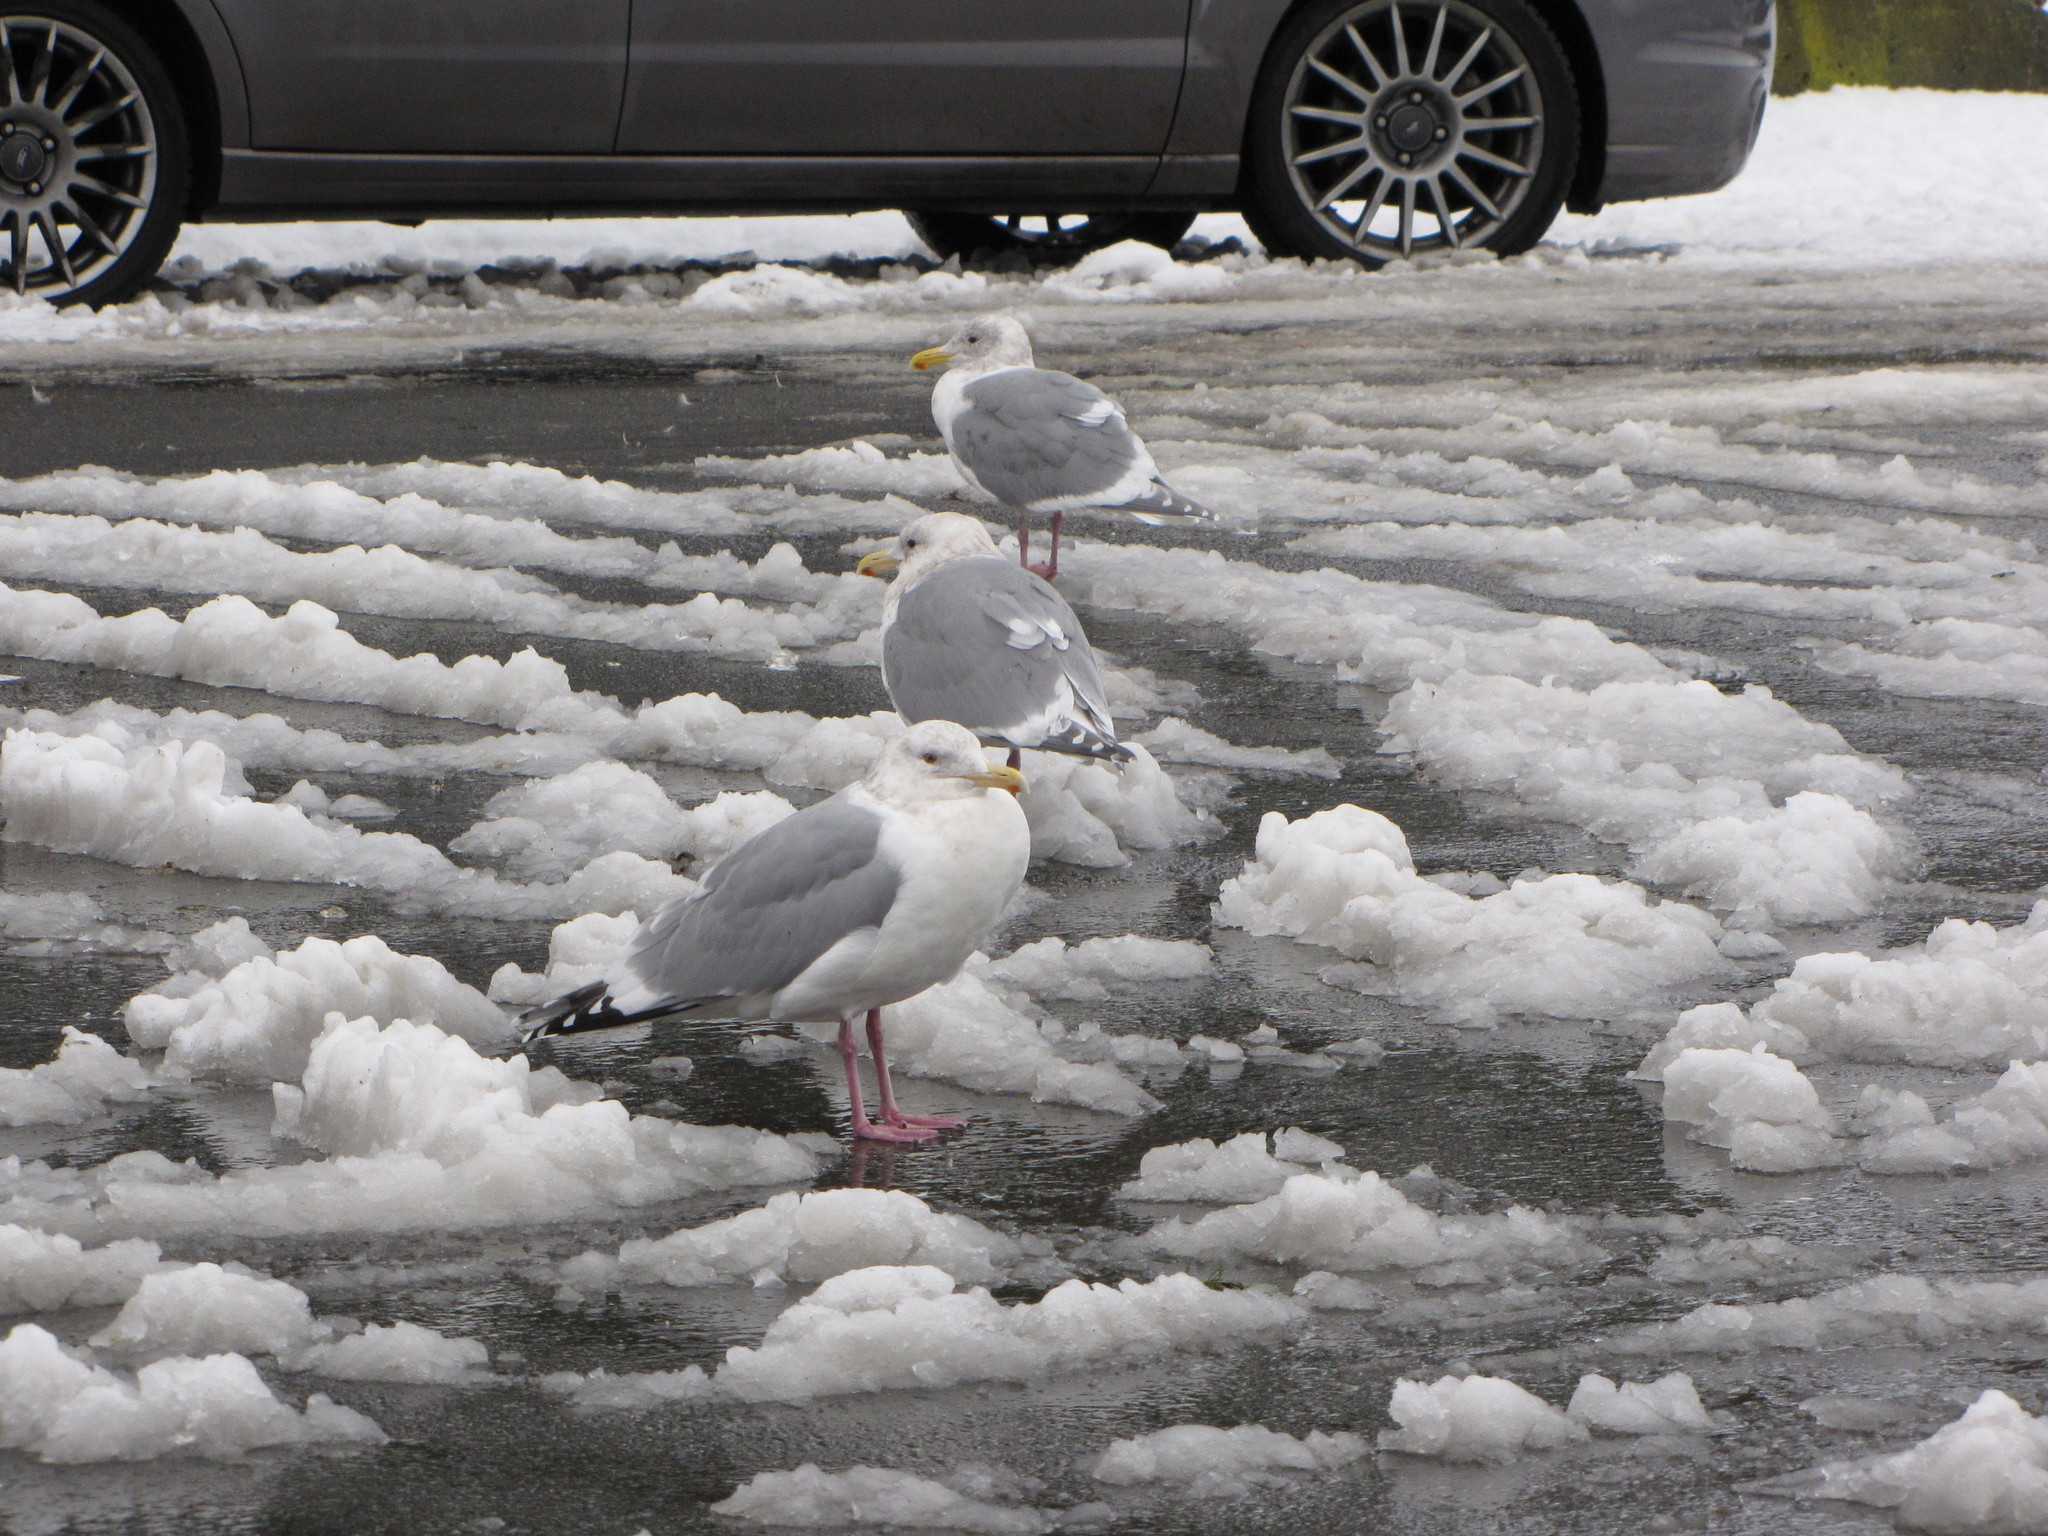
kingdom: Animalia
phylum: Chordata
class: Aves
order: Charadriiformes
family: Laridae
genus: Larus
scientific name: Larus argentatus
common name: Herring gull
